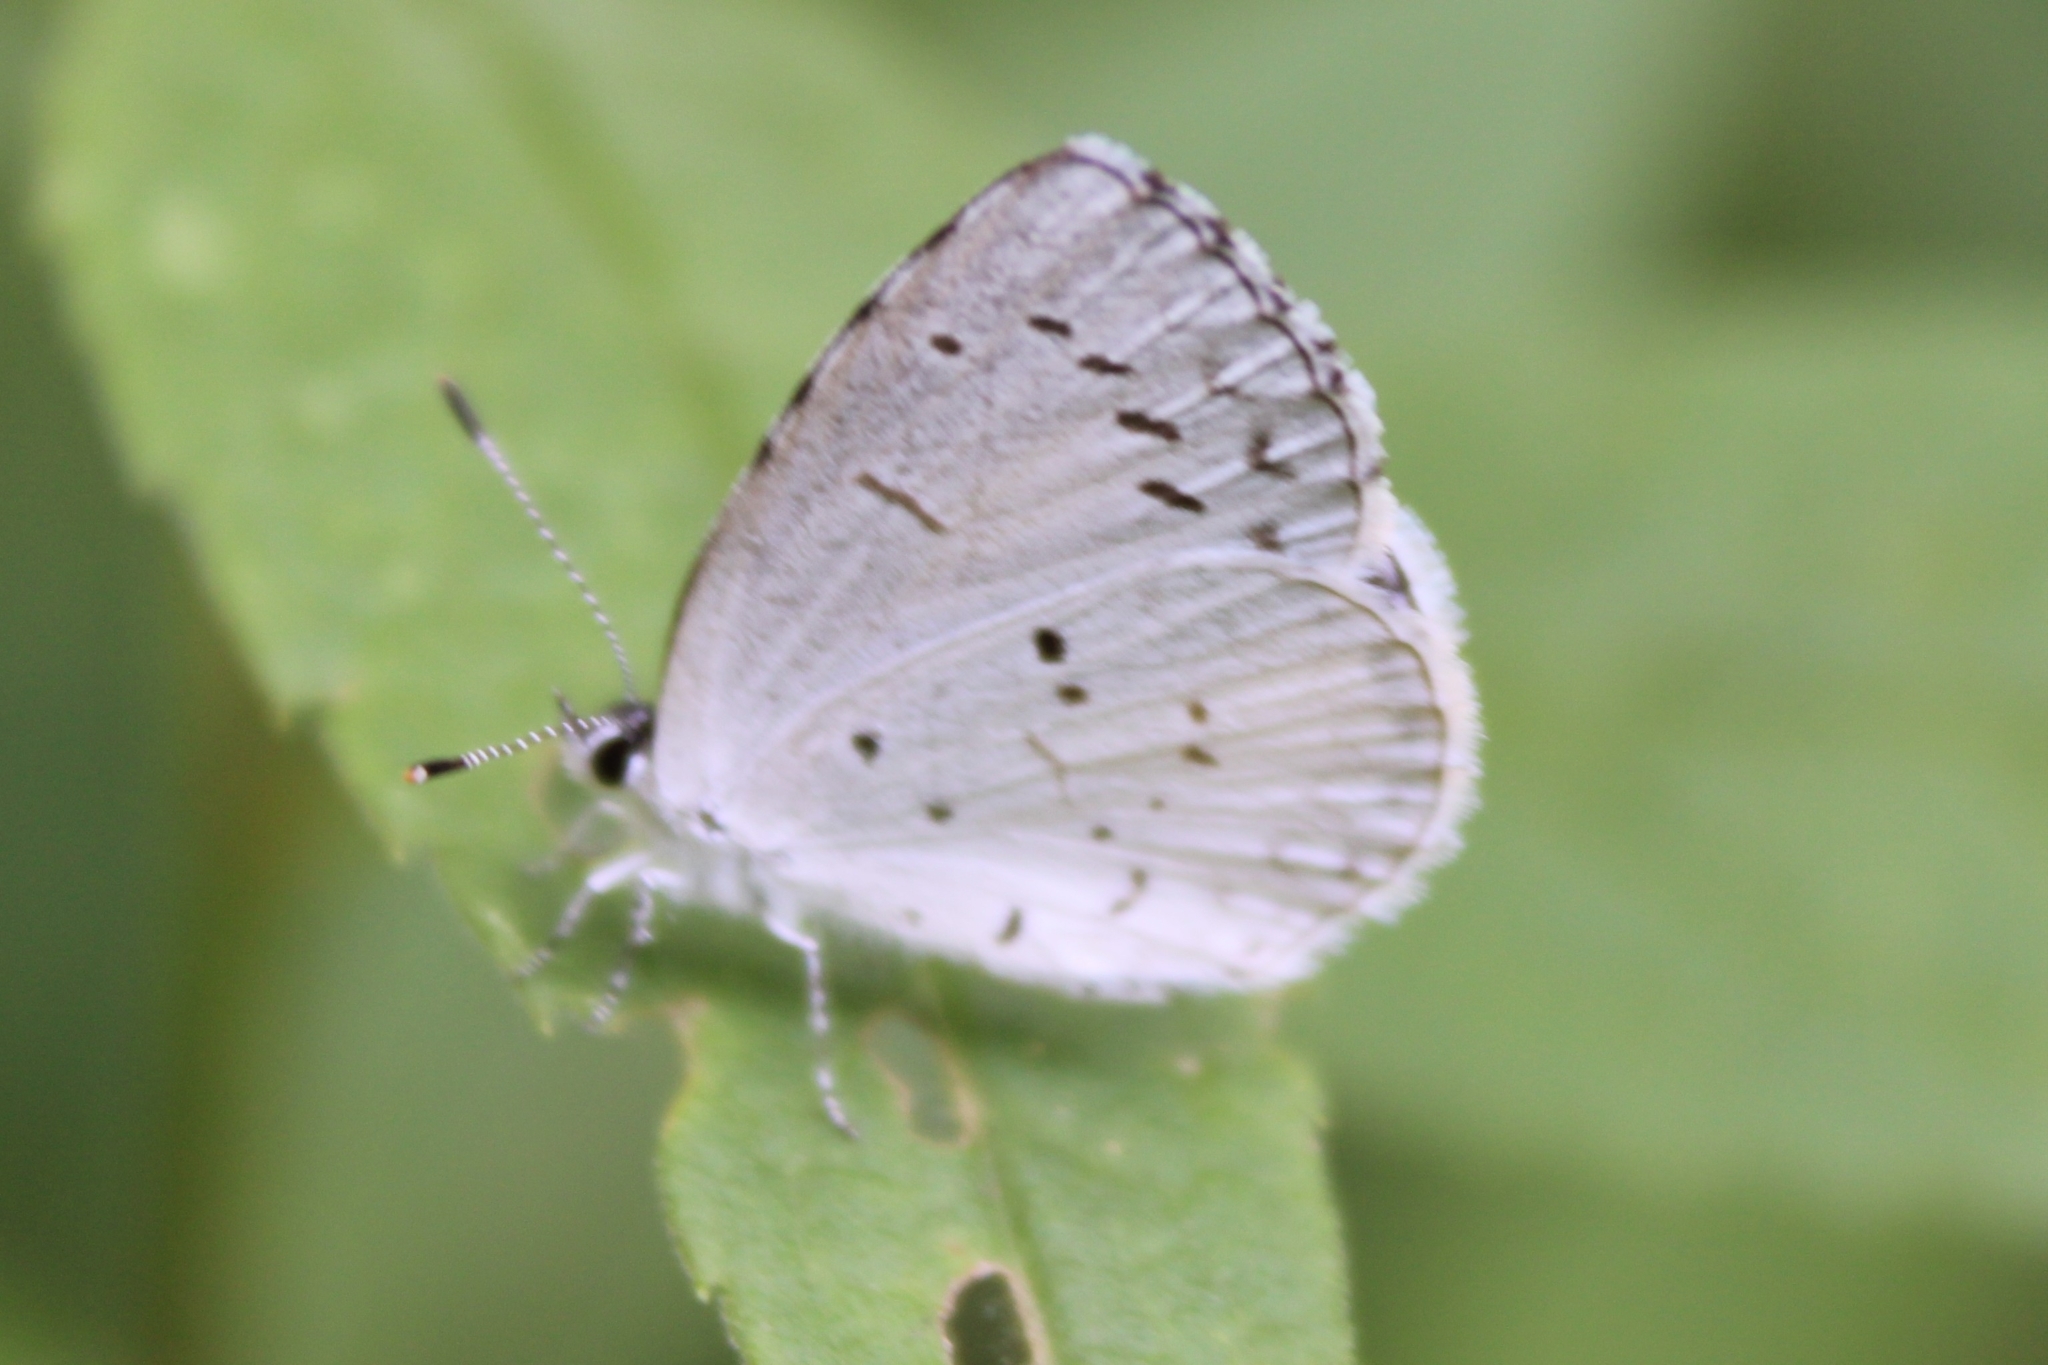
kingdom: Animalia
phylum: Arthropoda
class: Insecta
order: Lepidoptera
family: Lycaenidae
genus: Cyaniris
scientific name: Cyaniris neglecta
